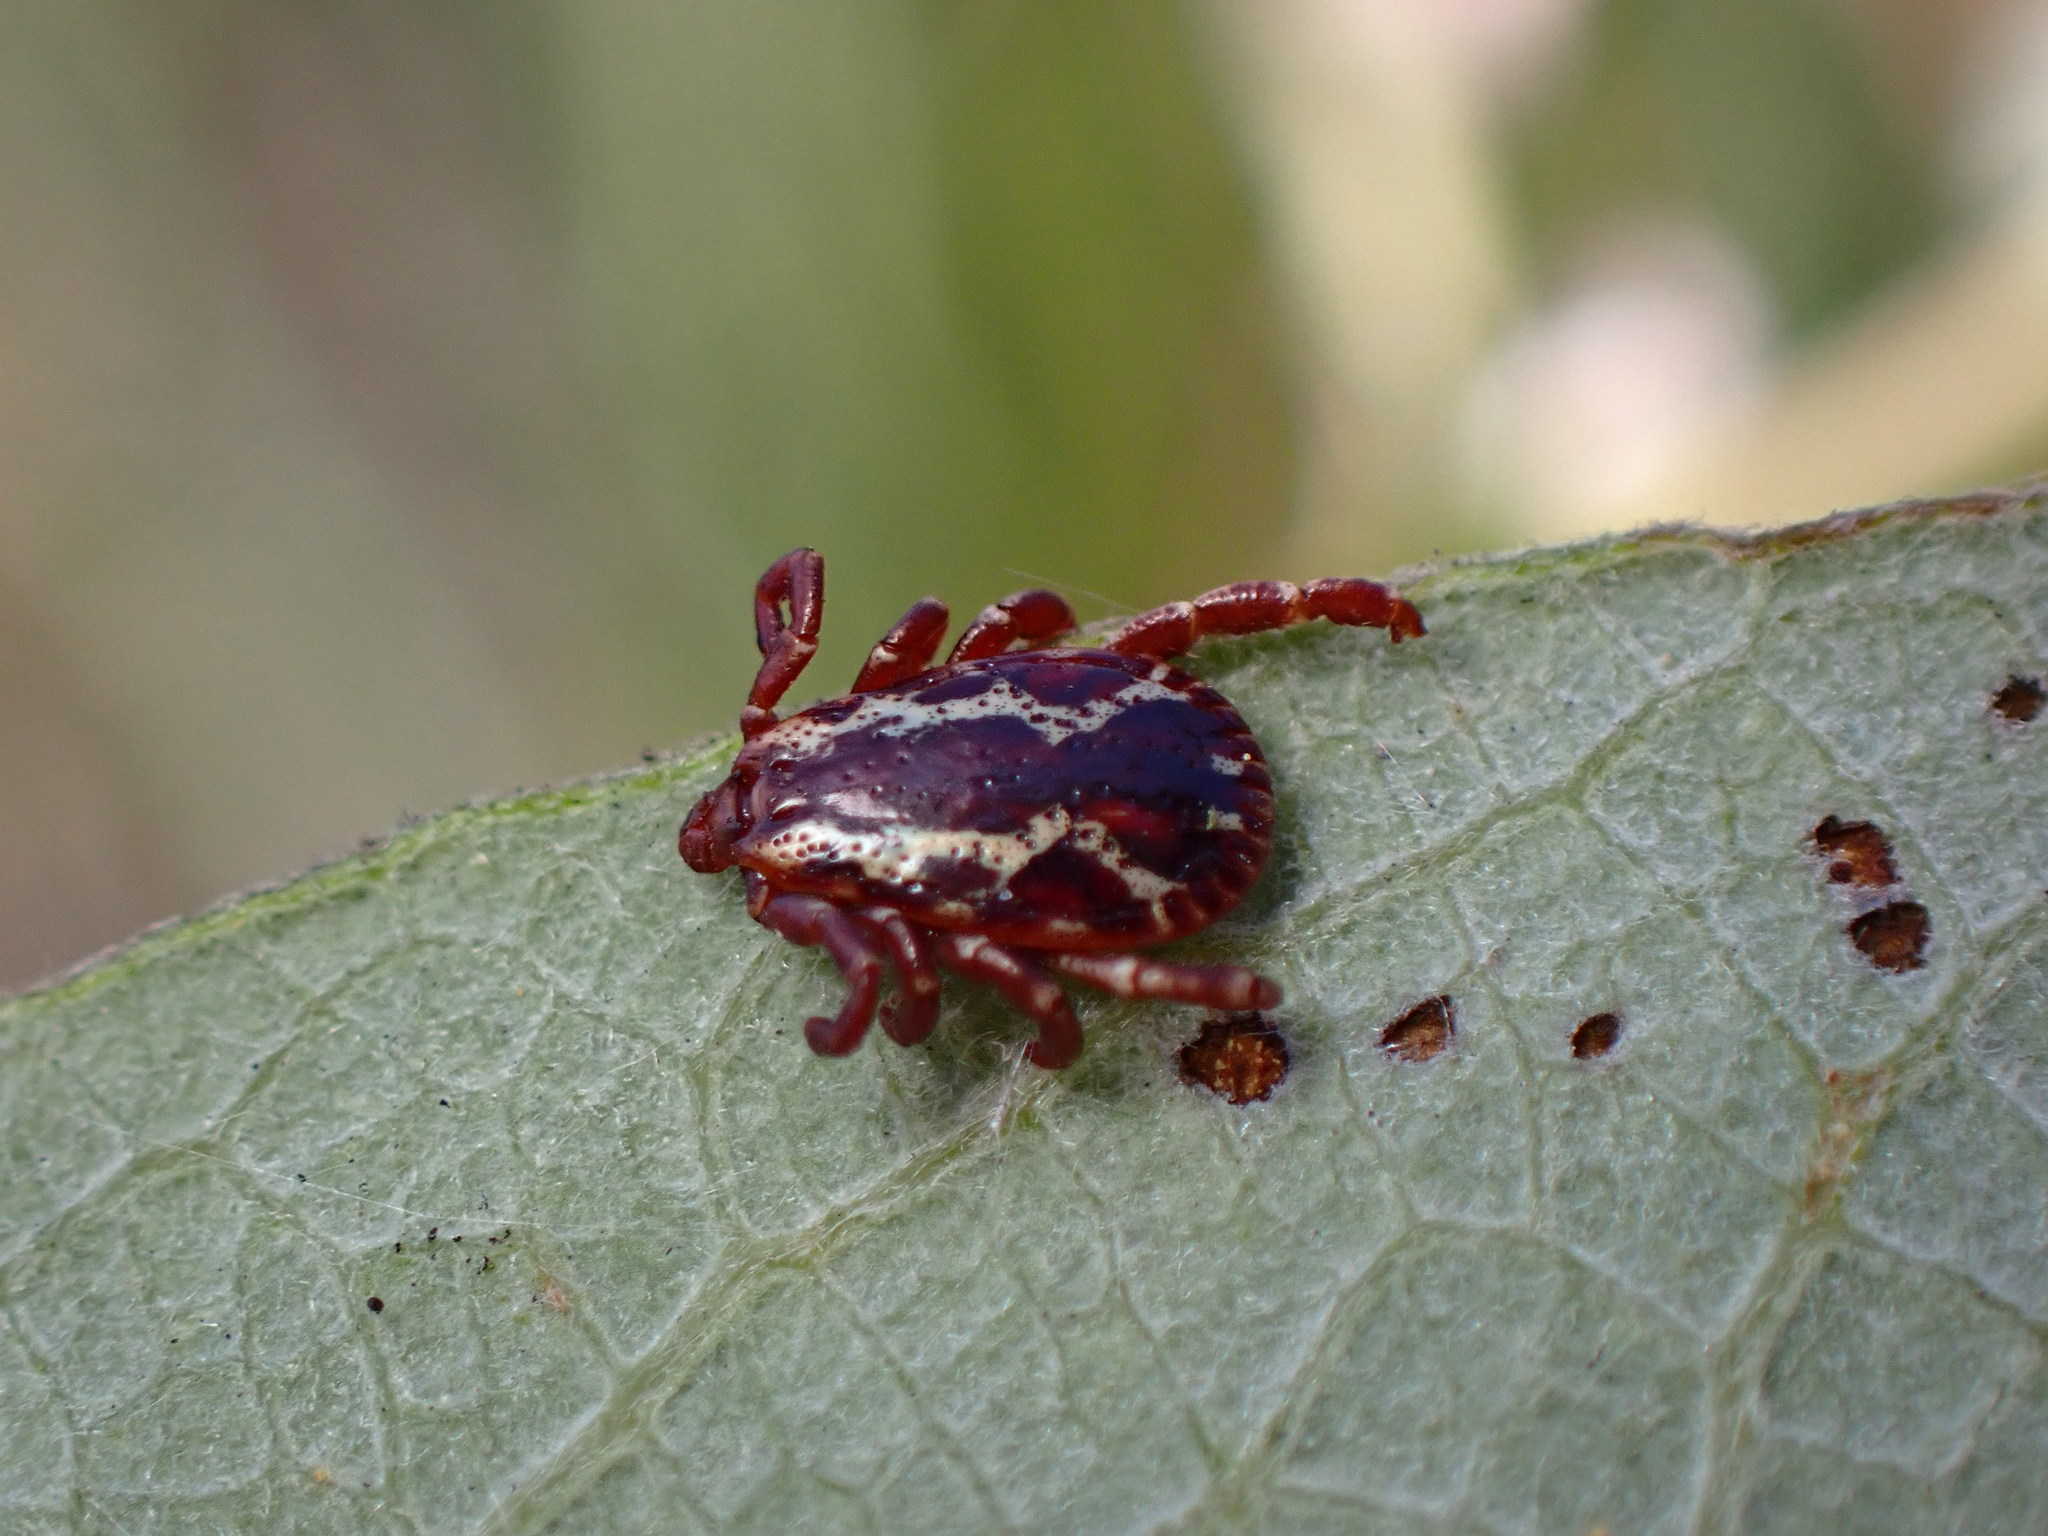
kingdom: Animalia
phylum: Arthropoda
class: Arachnida
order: Ixodida
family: Ixodidae
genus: Dermacentor
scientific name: Dermacentor variabilis
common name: American dog tick
